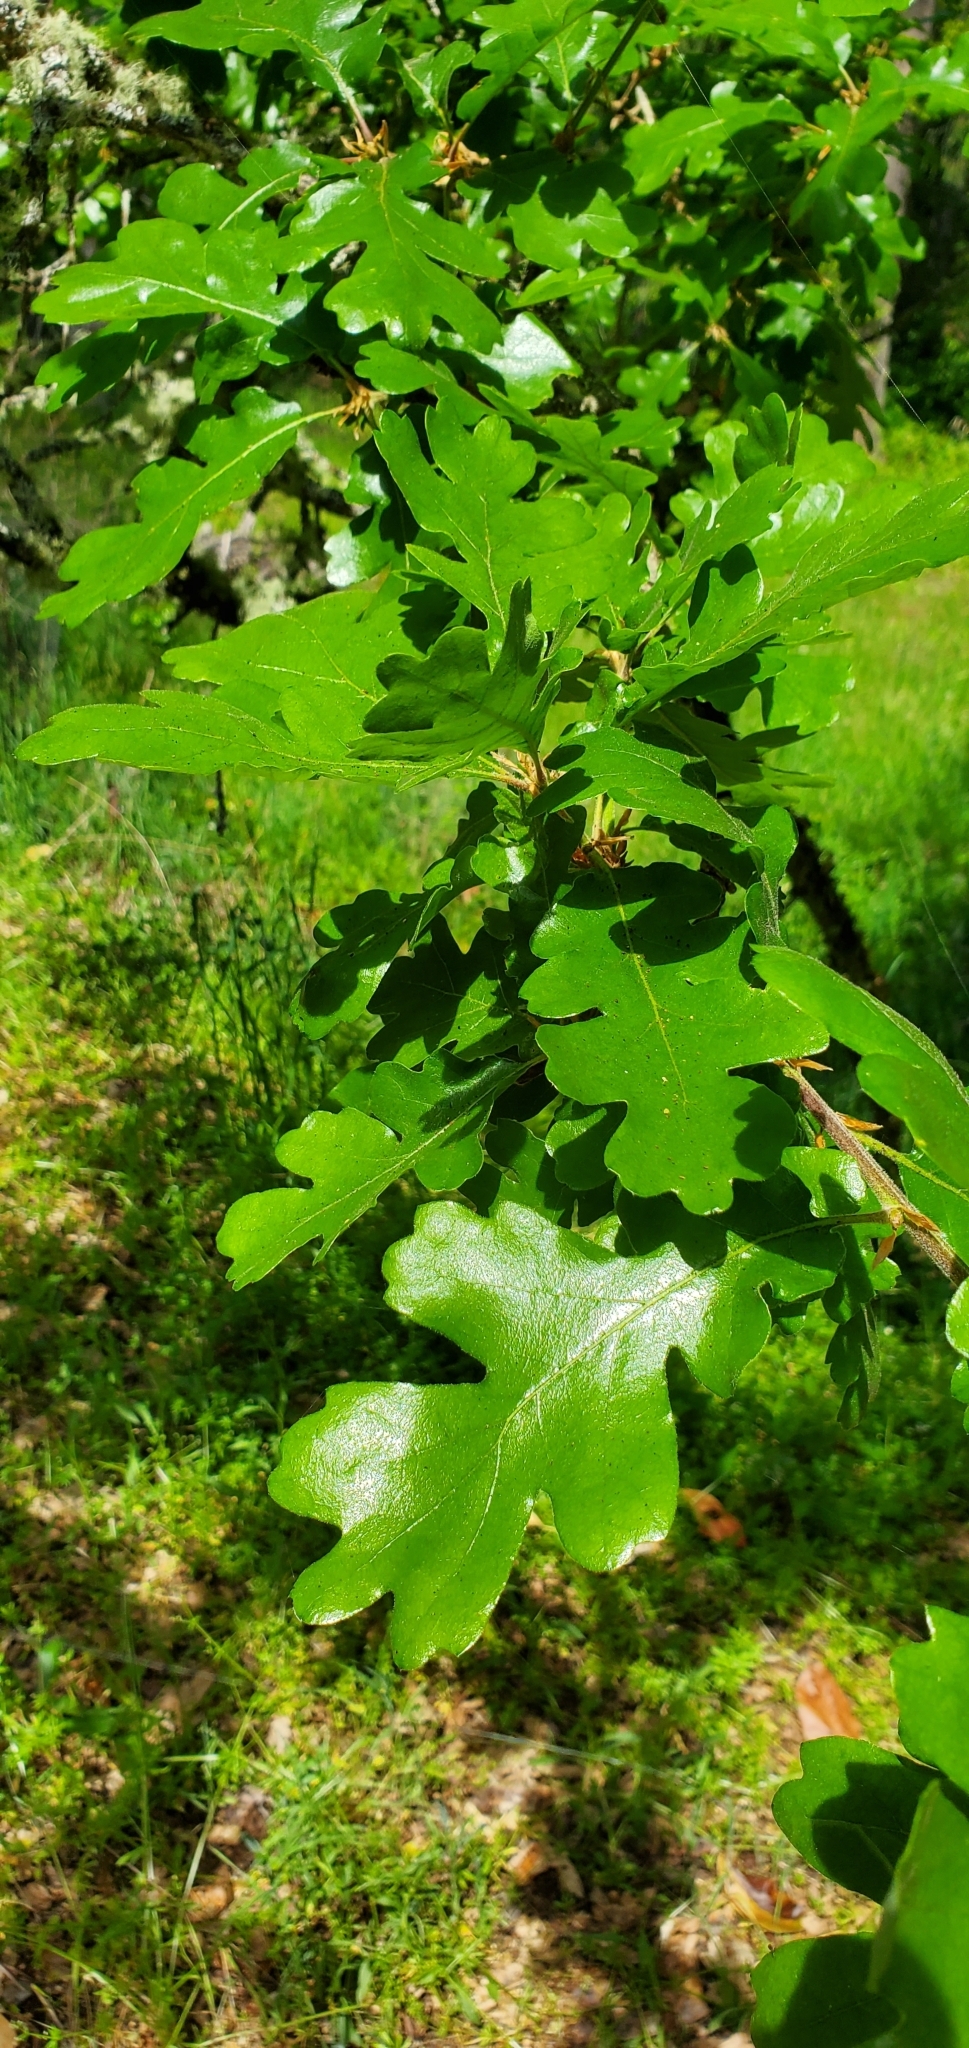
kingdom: Plantae
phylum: Tracheophyta
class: Magnoliopsida
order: Fagales
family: Fagaceae
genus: Quercus
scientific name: Quercus garryana
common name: Garry oak
